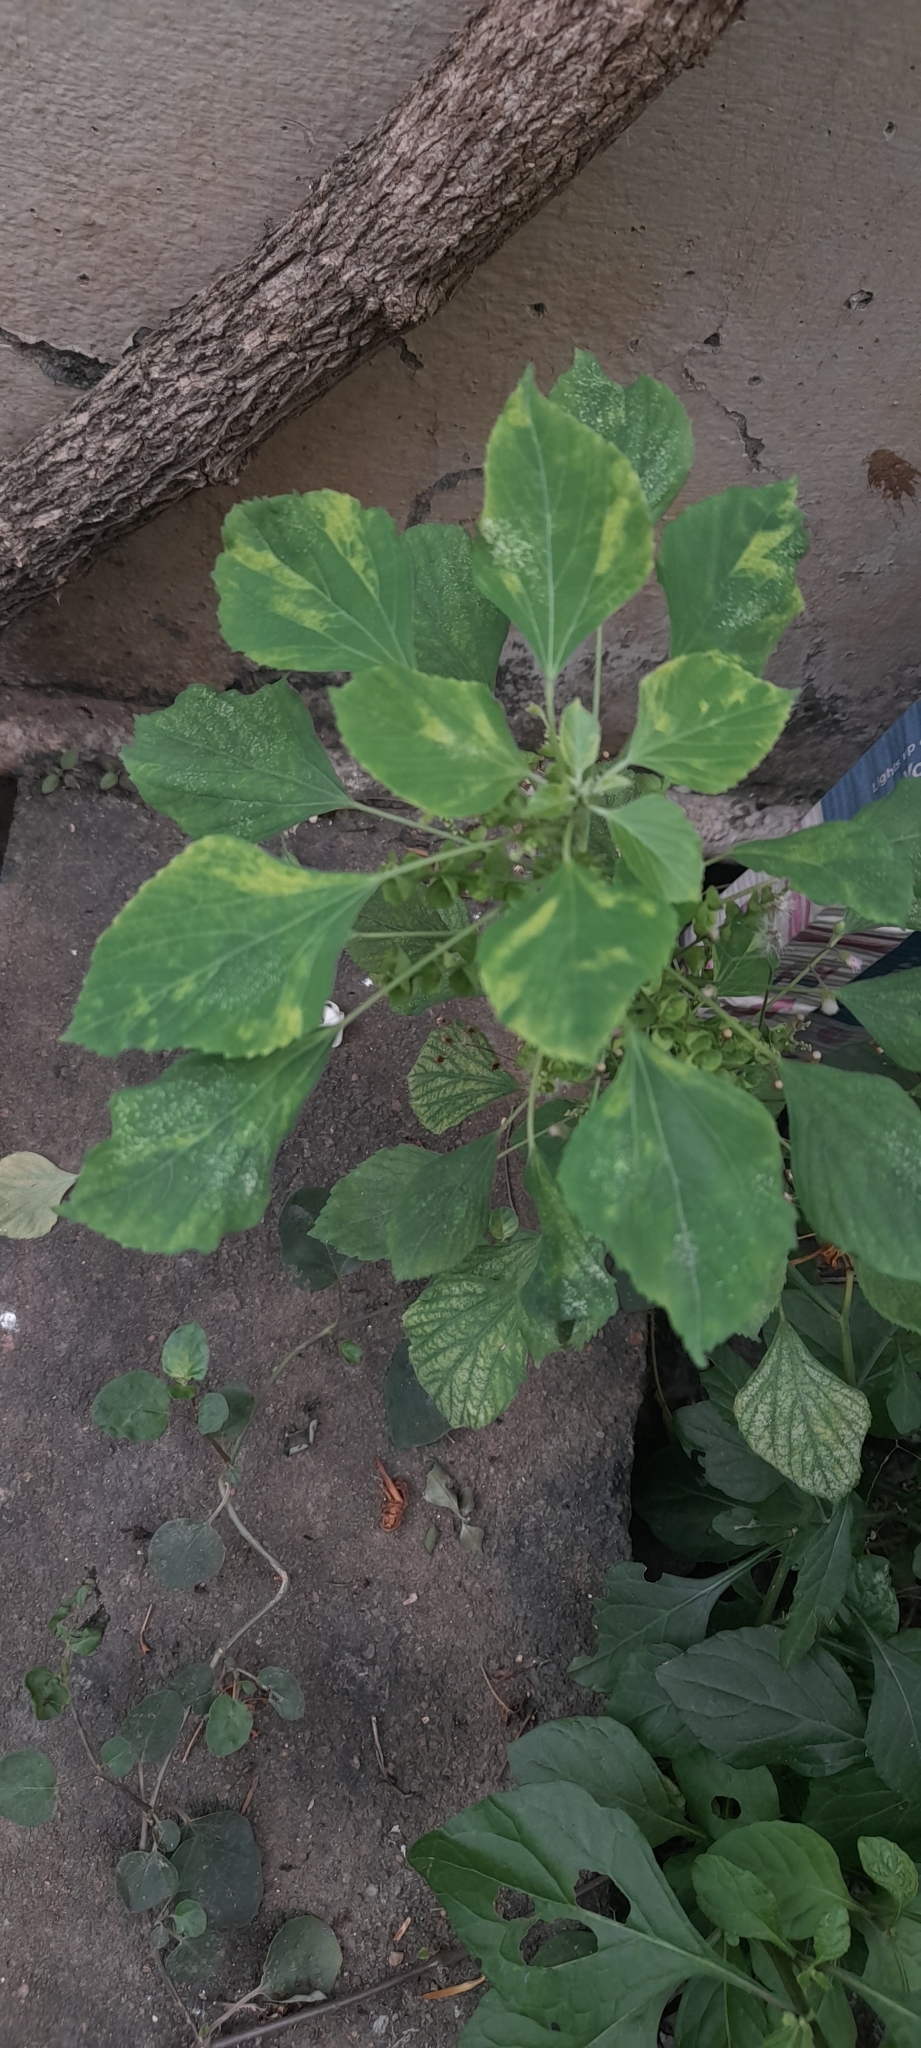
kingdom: Plantae
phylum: Tracheophyta
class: Magnoliopsida
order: Malpighiales
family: Euphorbiaceae
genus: Acalypha
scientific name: Acalypha indica
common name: Indian acalypha
